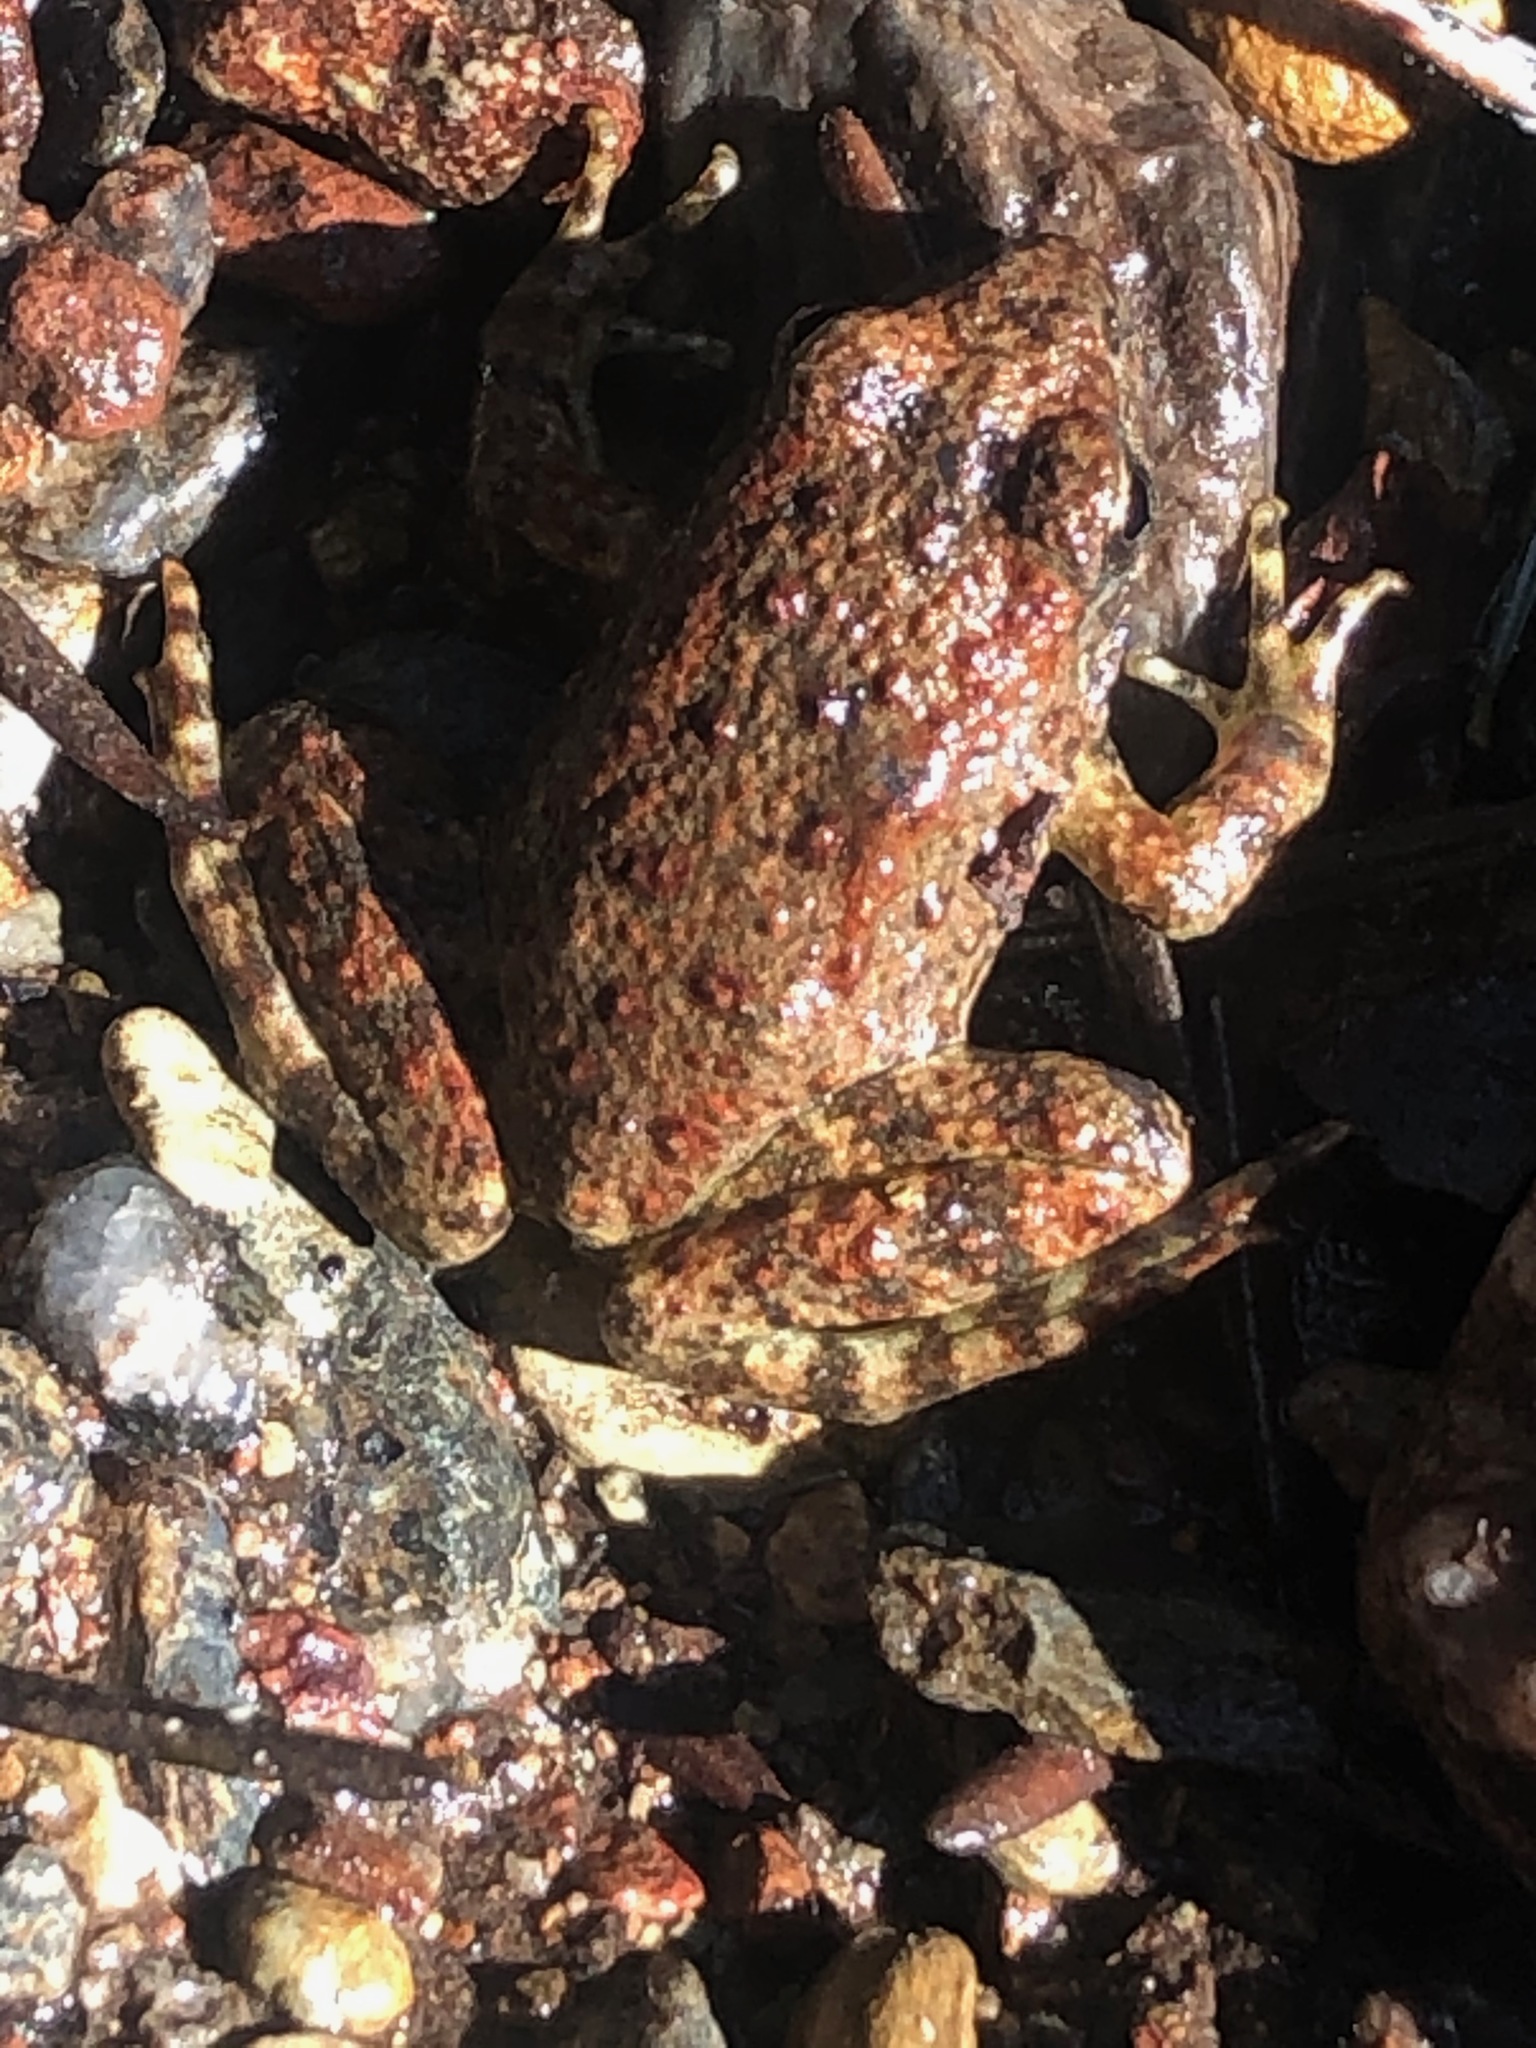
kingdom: Animalia
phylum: Chordata
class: Amphibia
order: Anura
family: Ranidae
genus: Rana
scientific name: Rana boylii
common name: Foothill yellow-legged frog
